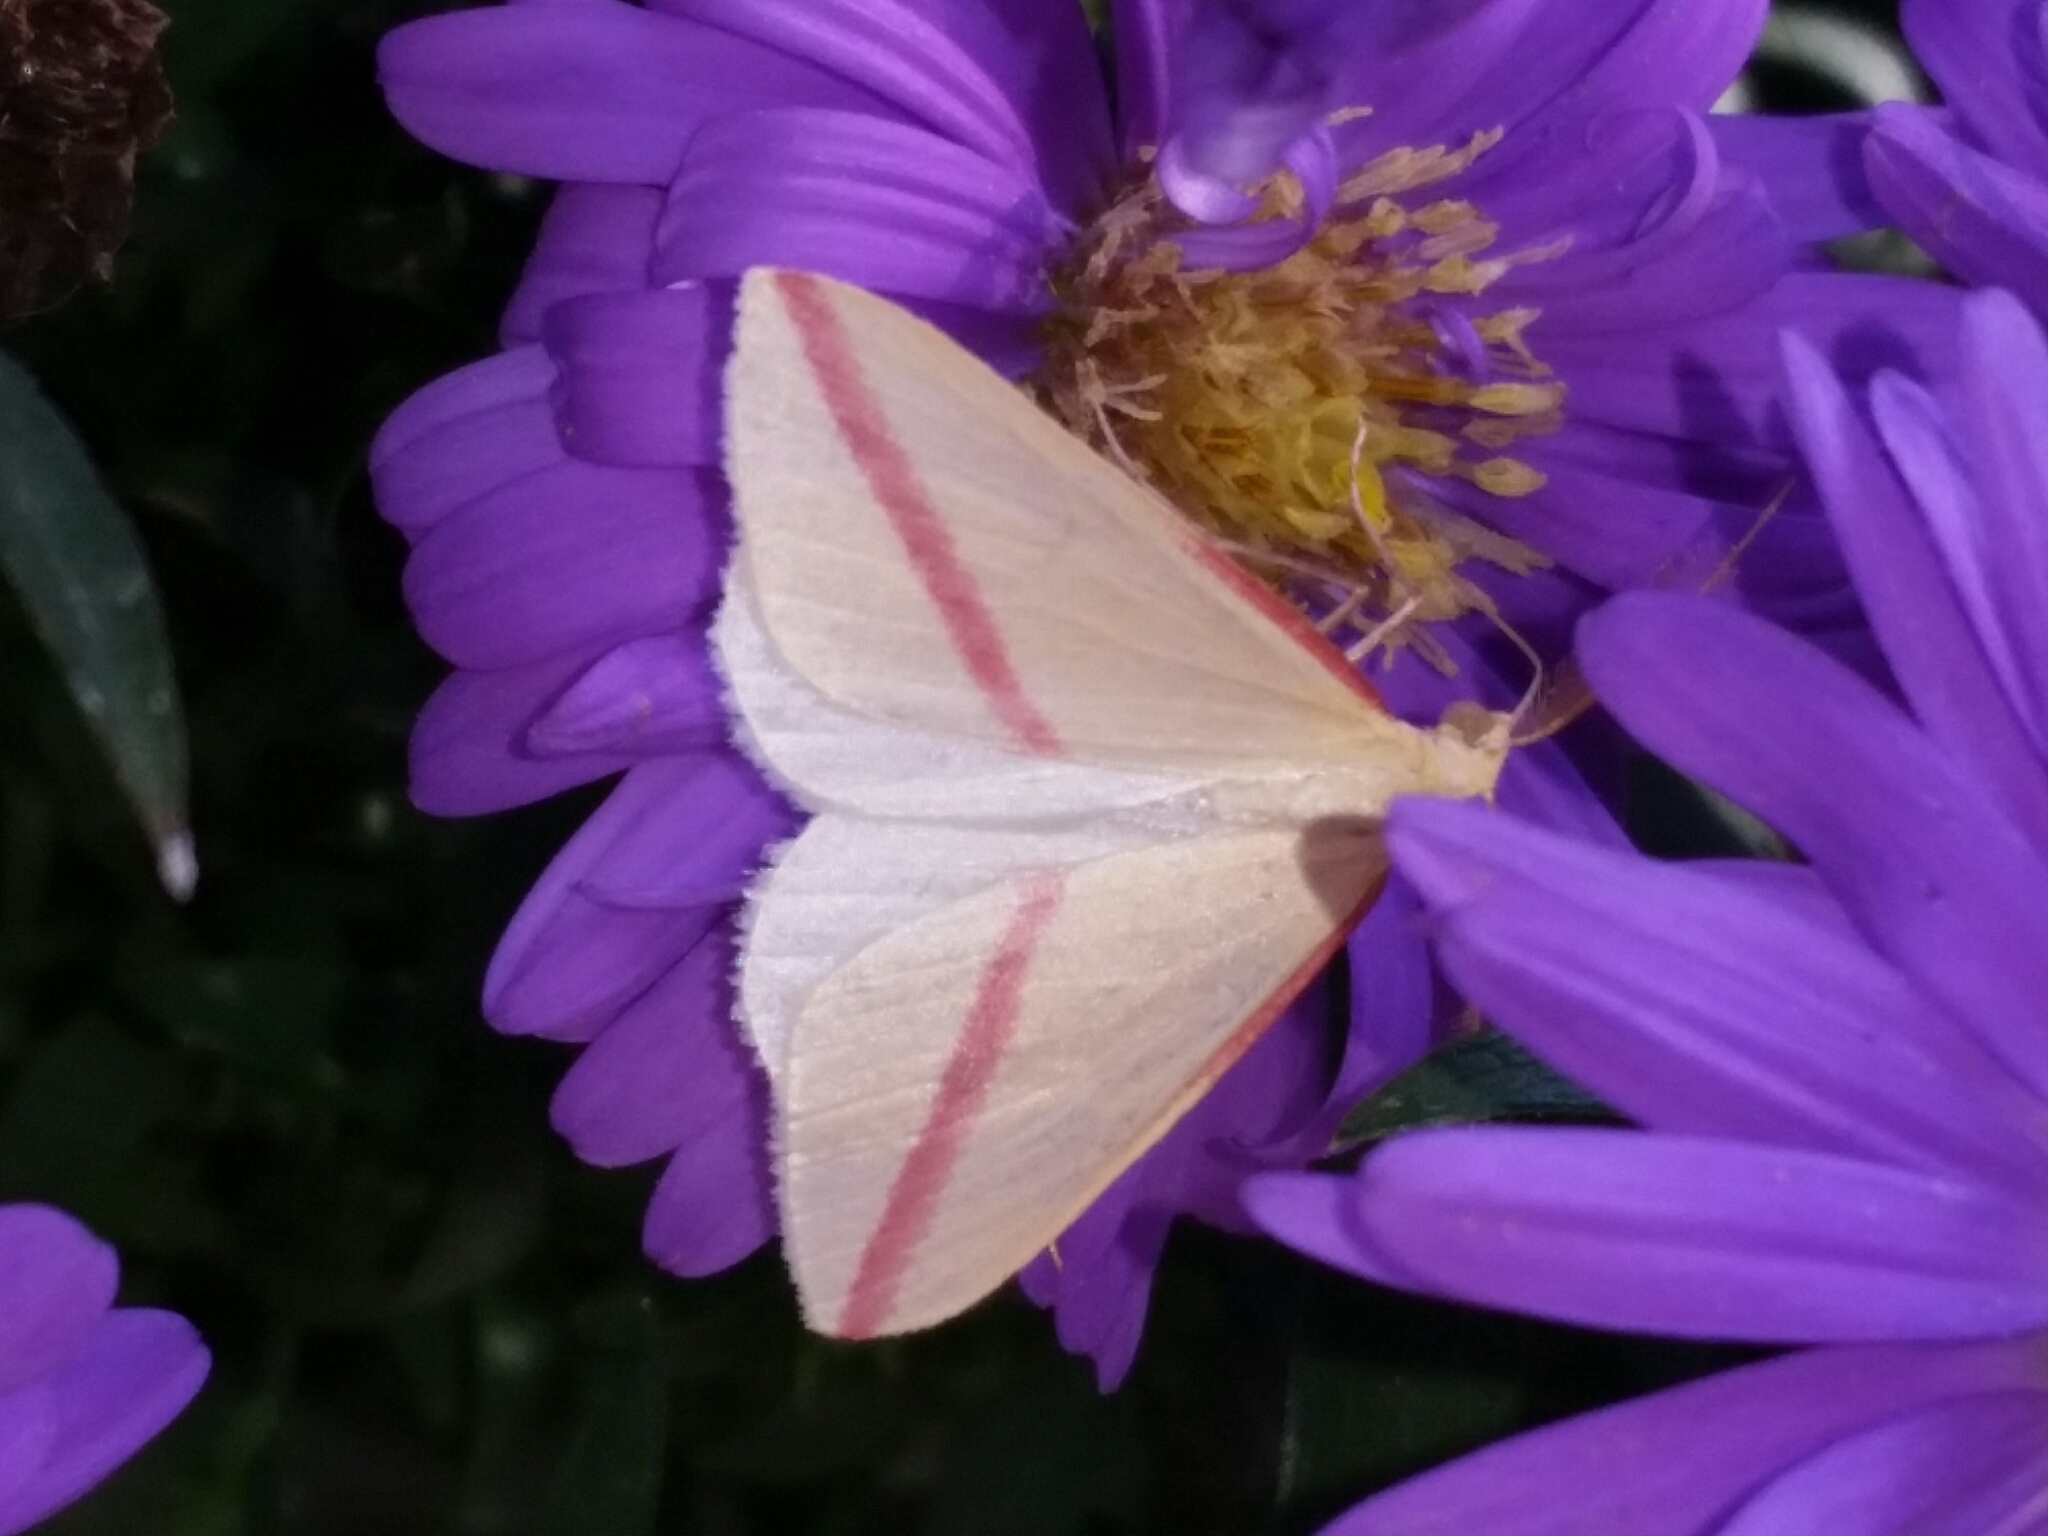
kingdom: Animalia
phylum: Arthropoda
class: Insecta
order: Lepidoptera
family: Geometridae
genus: Rhodometra
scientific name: Rhodometra sacraria
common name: Vestal
